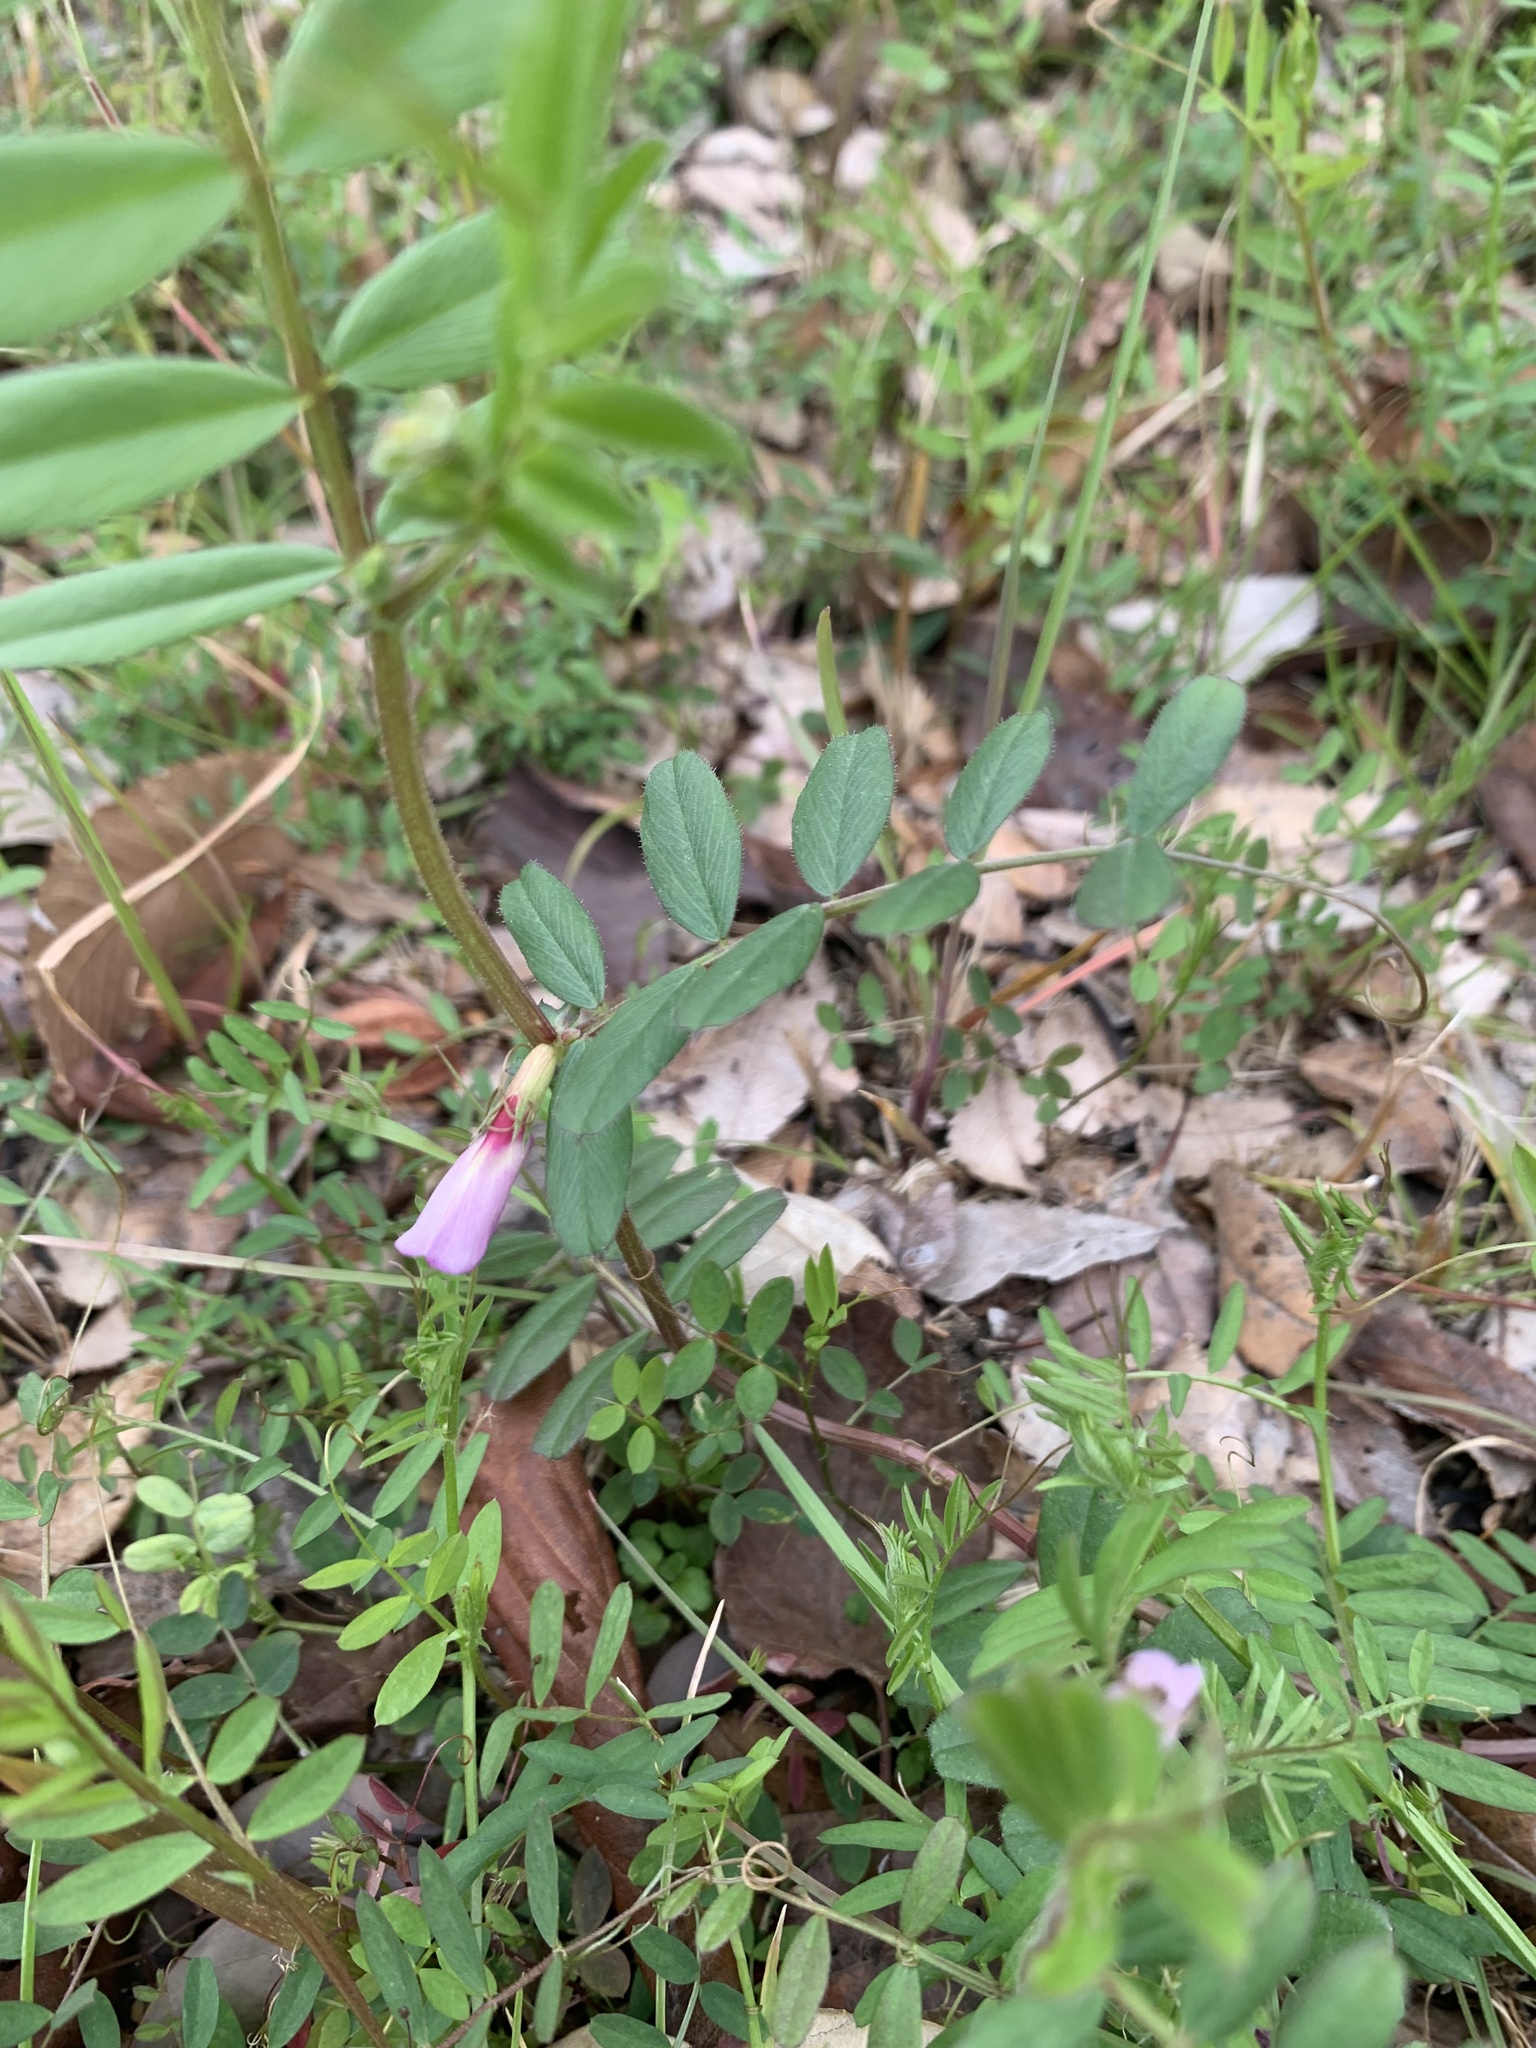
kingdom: Plantae
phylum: Tracheophyta
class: Magnoliopsida
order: Fabales
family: Fabaceae
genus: Vicia
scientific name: Vicia sativa
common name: Garden vetch
